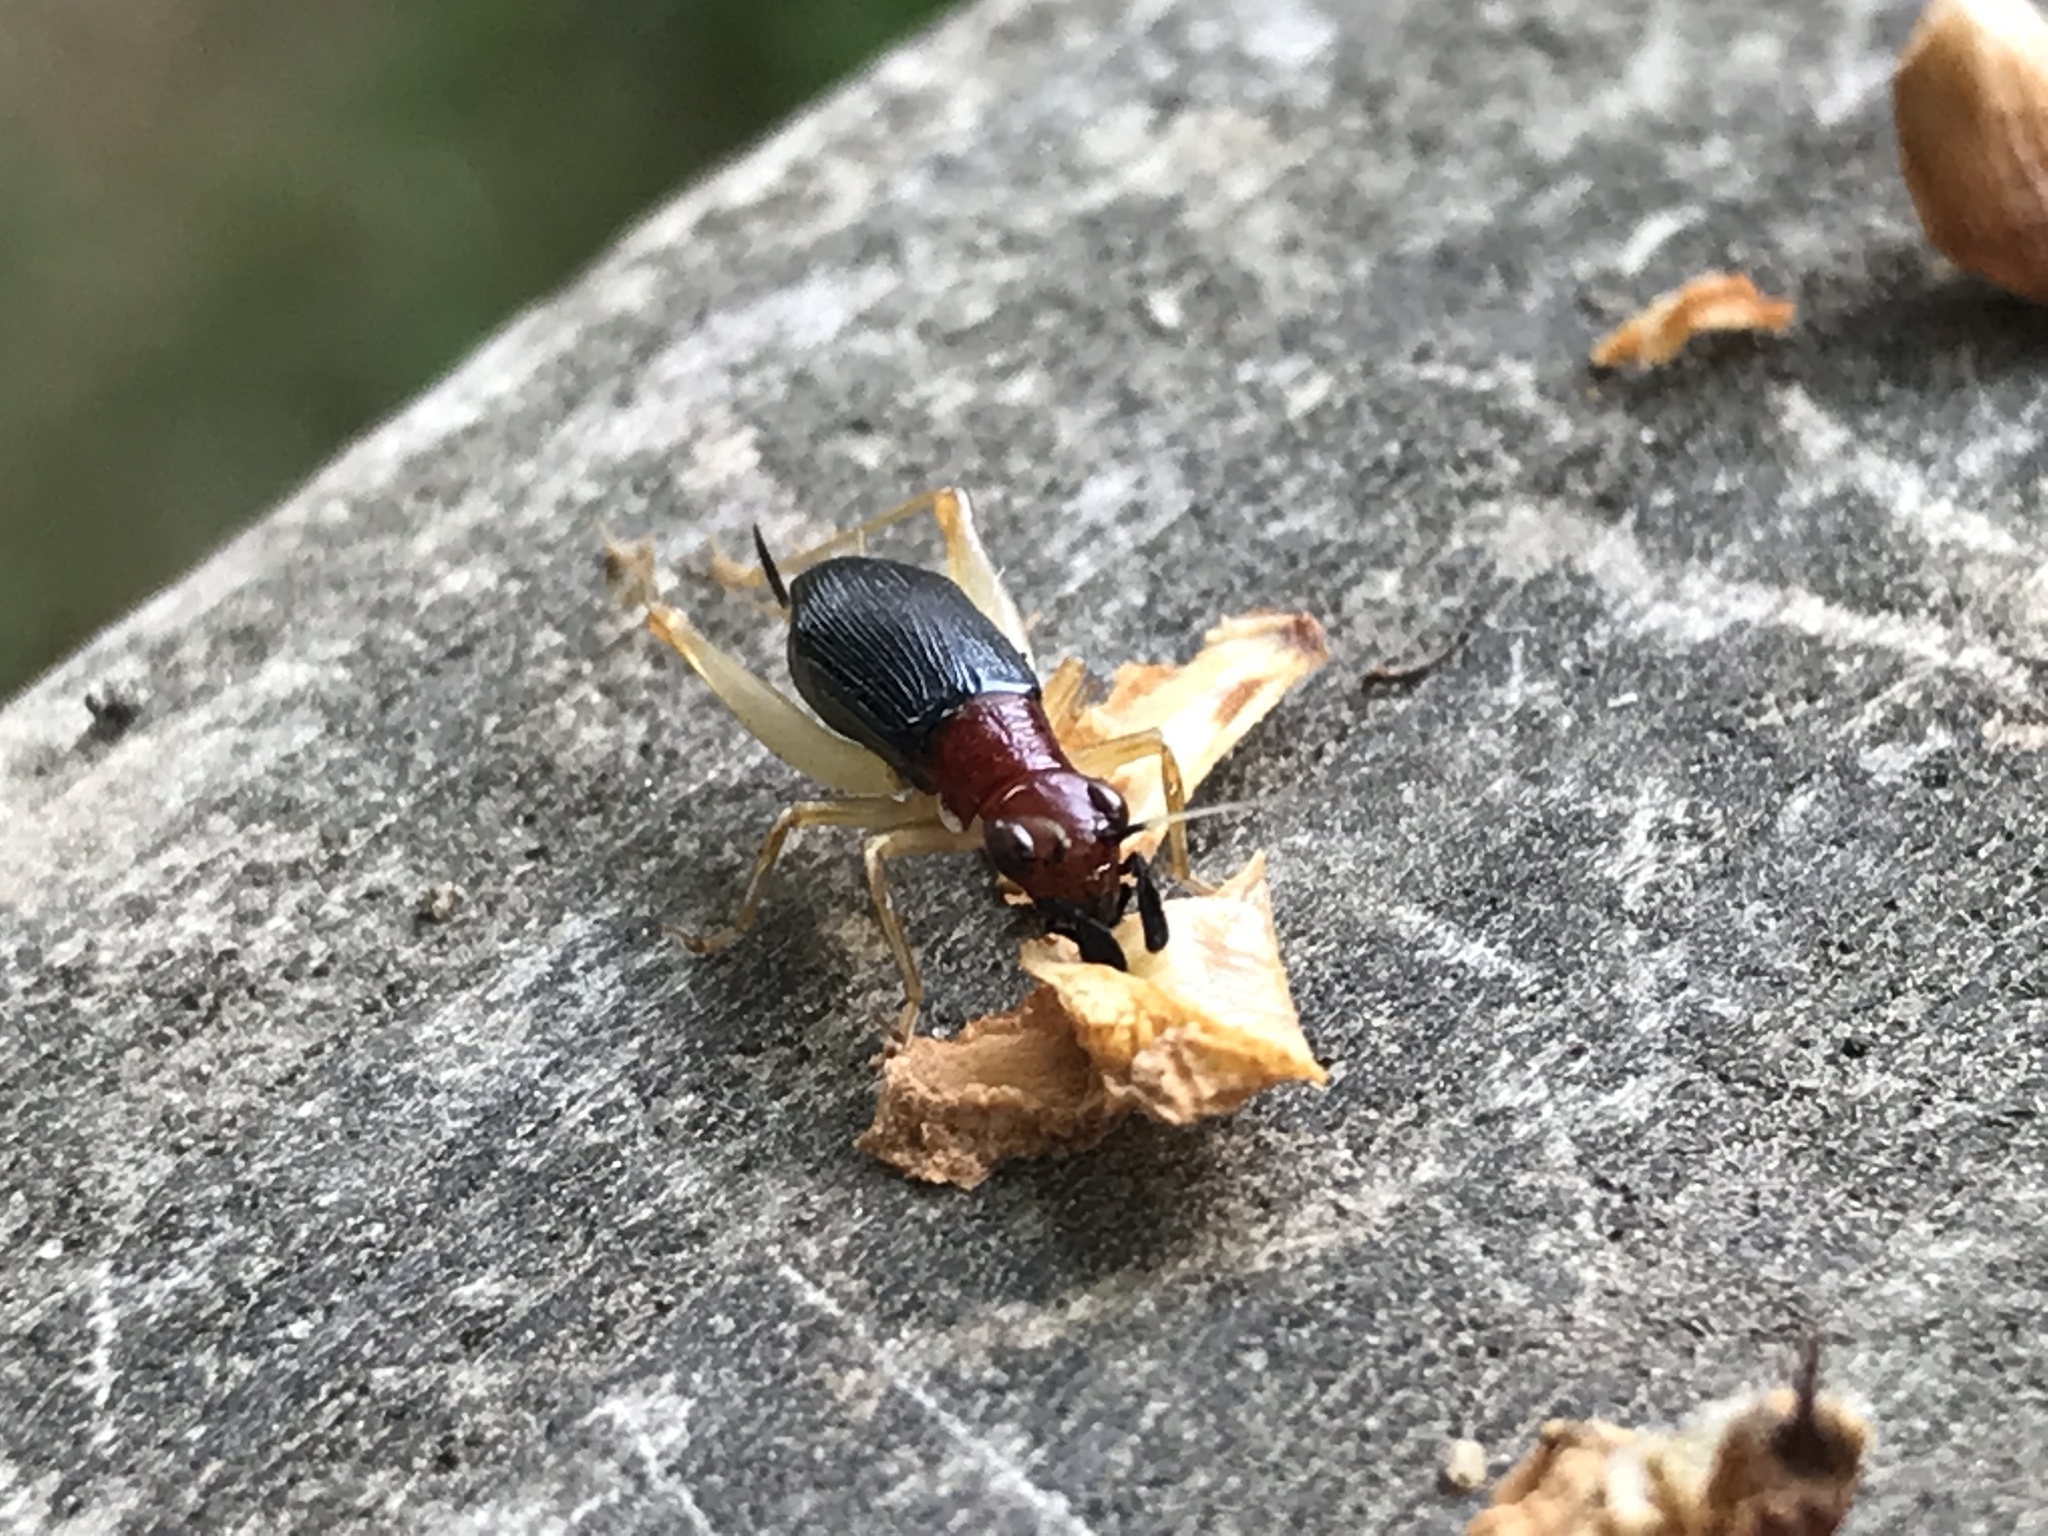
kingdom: Animalia
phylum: Arthropoda
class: Insecta
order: Orthoptera
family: Trigonidiidae
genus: Phyllopalpus
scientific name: Phyllopalpus pulchellus
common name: Handsome trig
